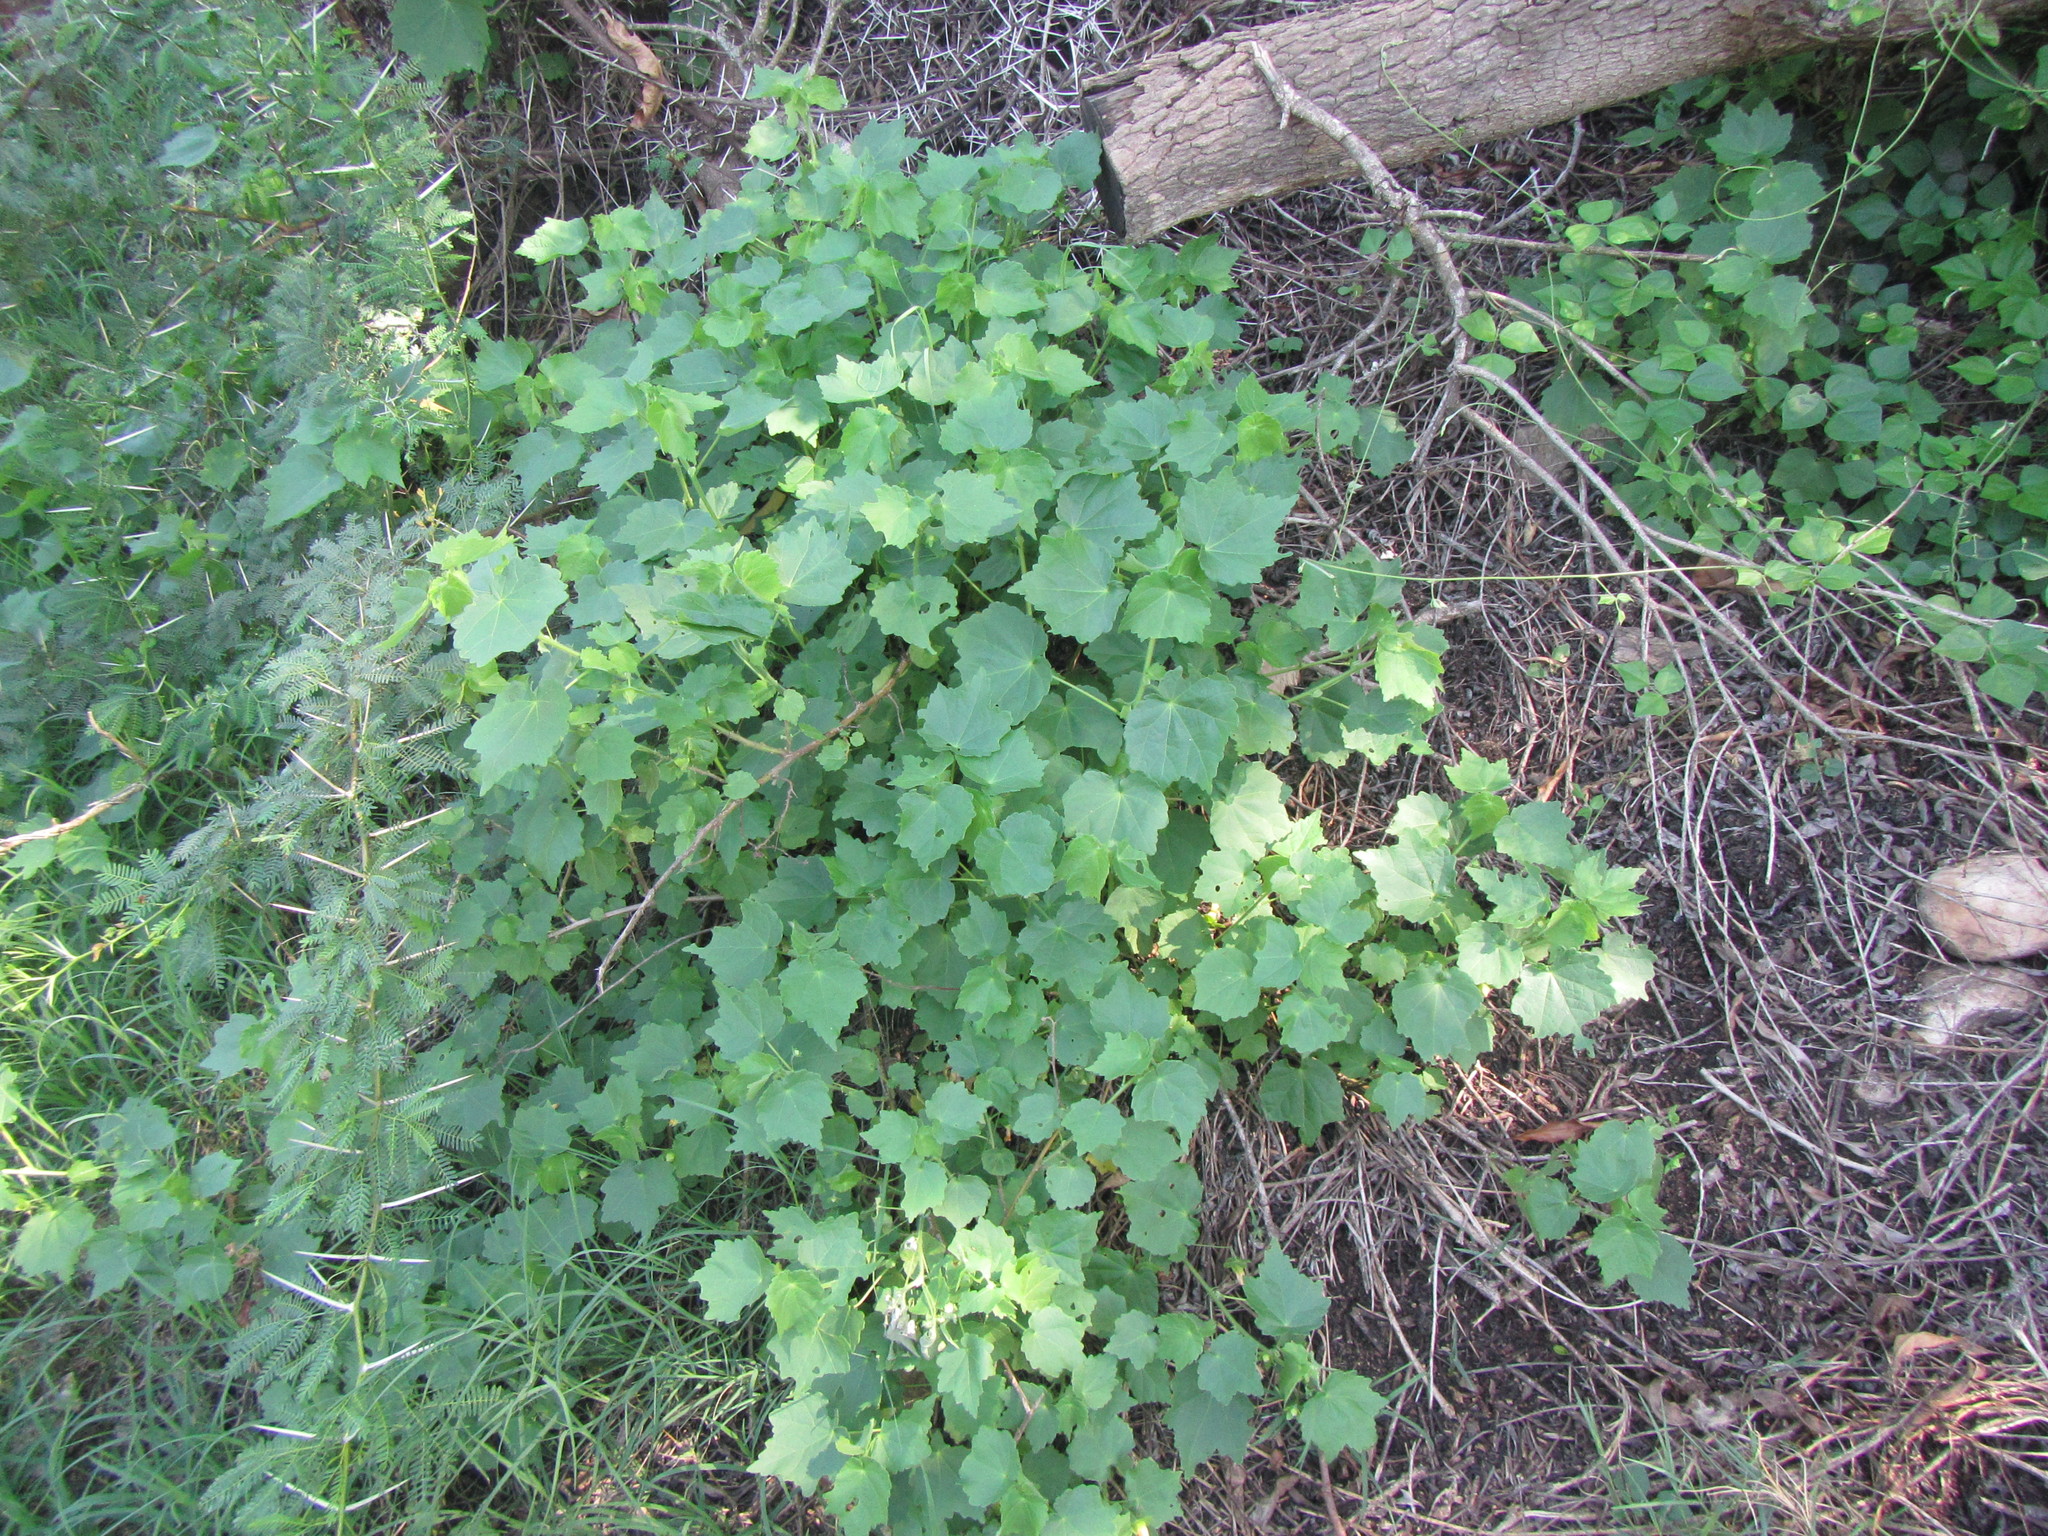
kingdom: Plantae
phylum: Tracheophyta
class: Magnoliopsida
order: Malvales
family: Malvaceae
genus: Pavonia
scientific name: Pavonia burchellii
